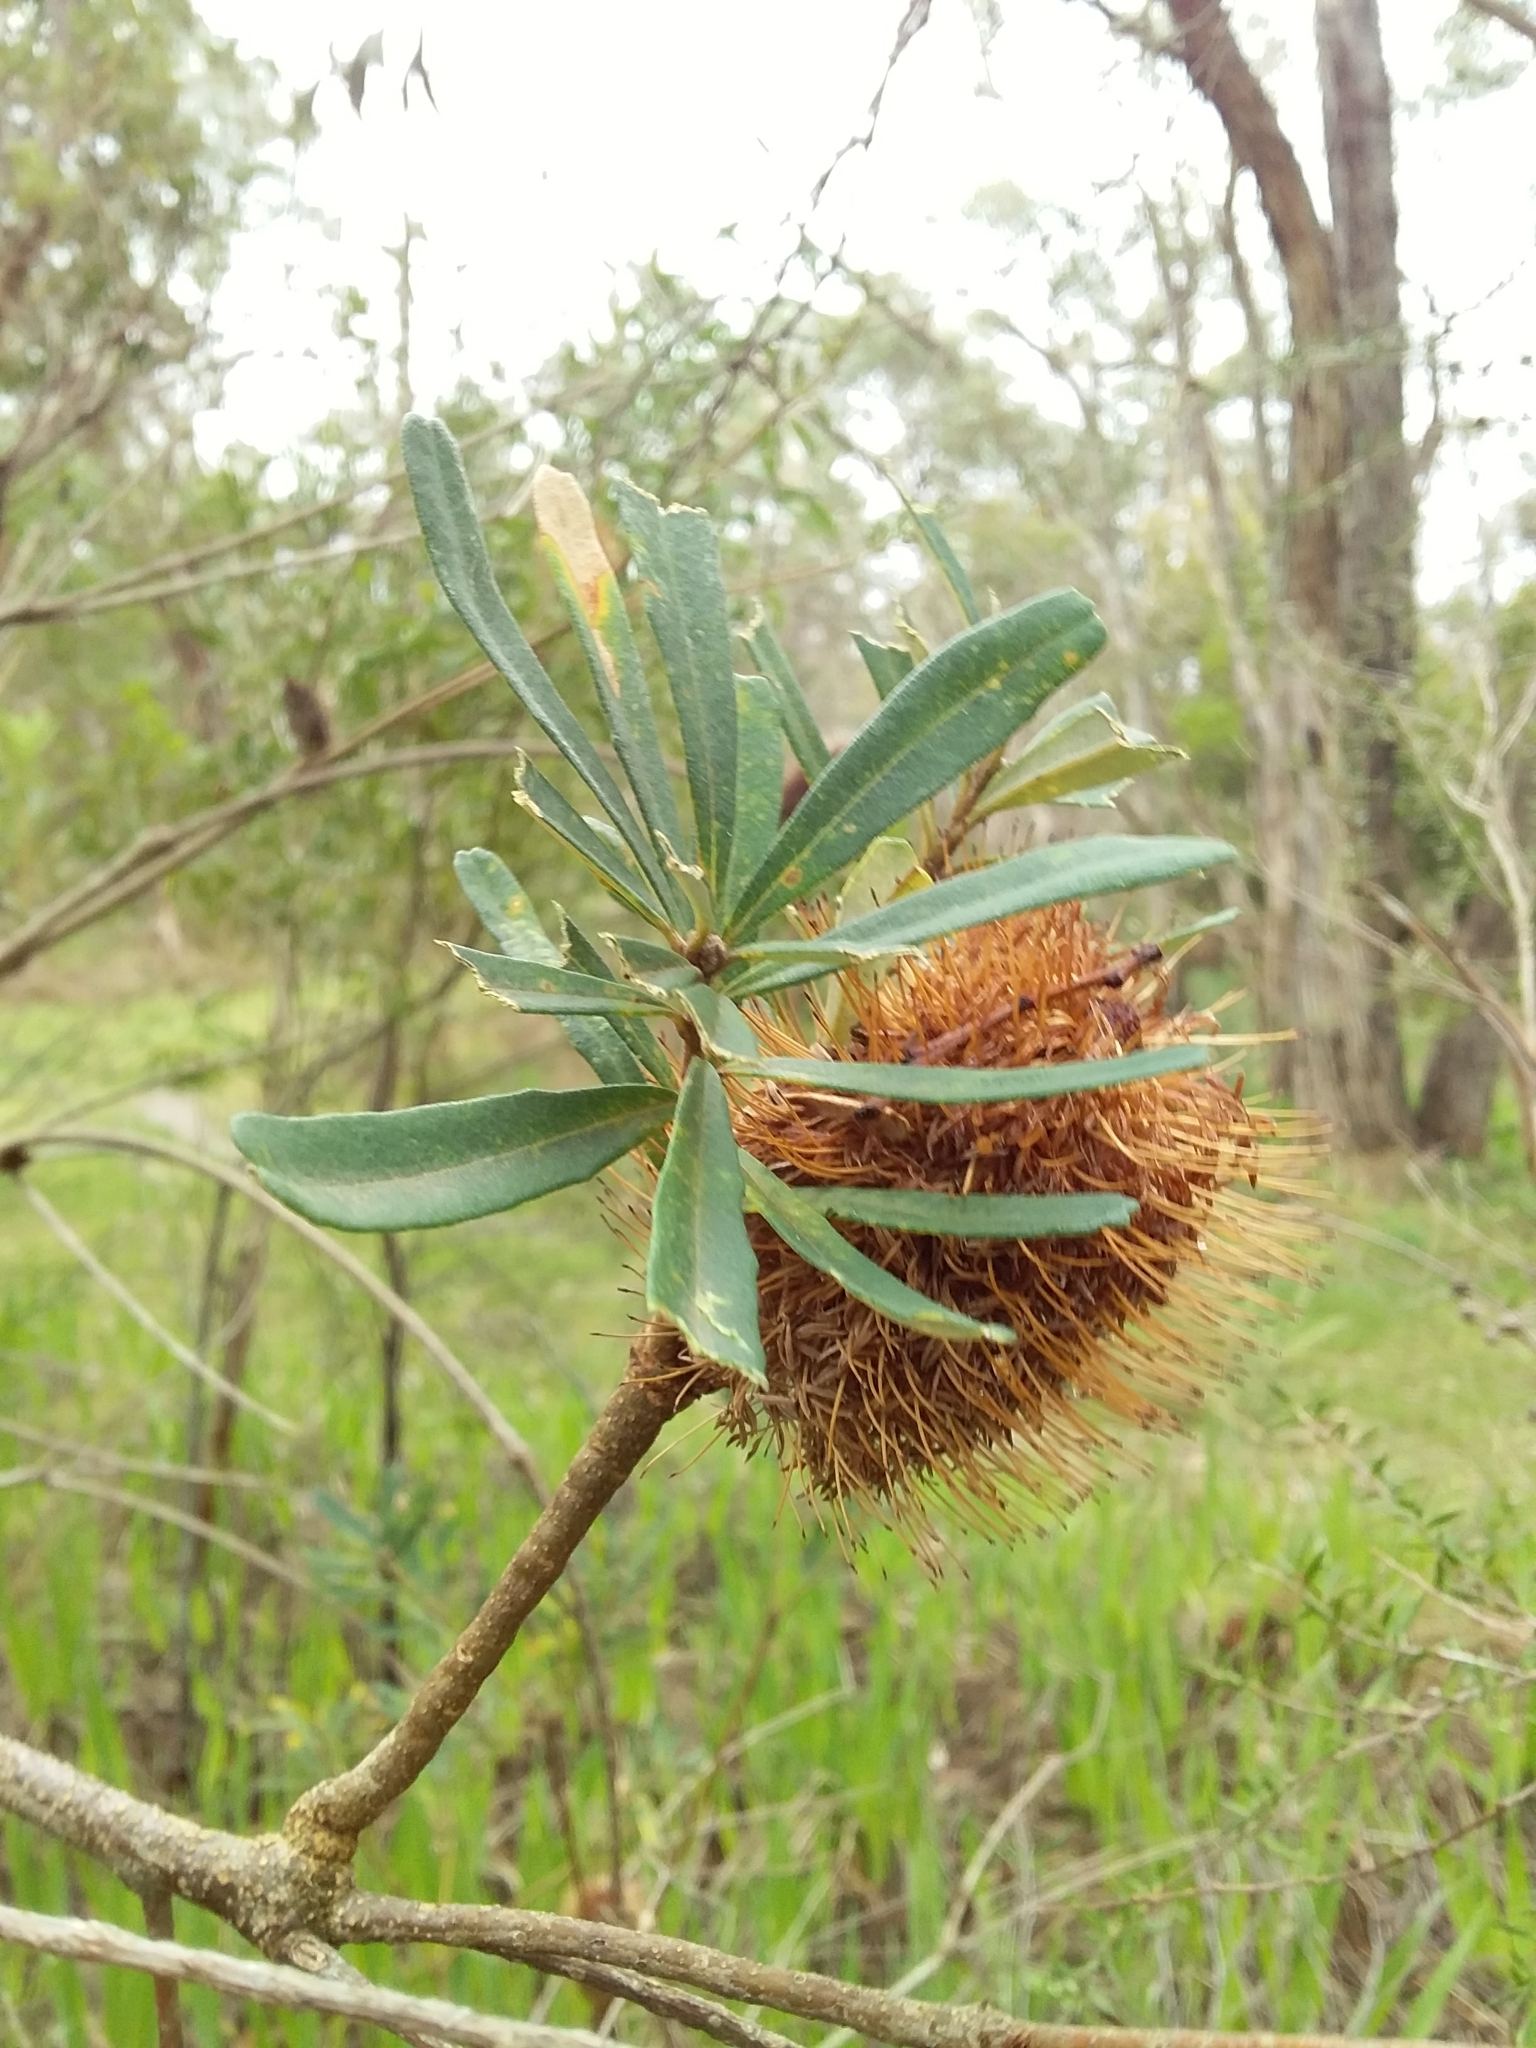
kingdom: Plantae
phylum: Tracheophyta
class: Magnoliopsida
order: Proteales
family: Proteaceae
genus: Banksia
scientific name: Banksia marginata
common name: Silver banksia
